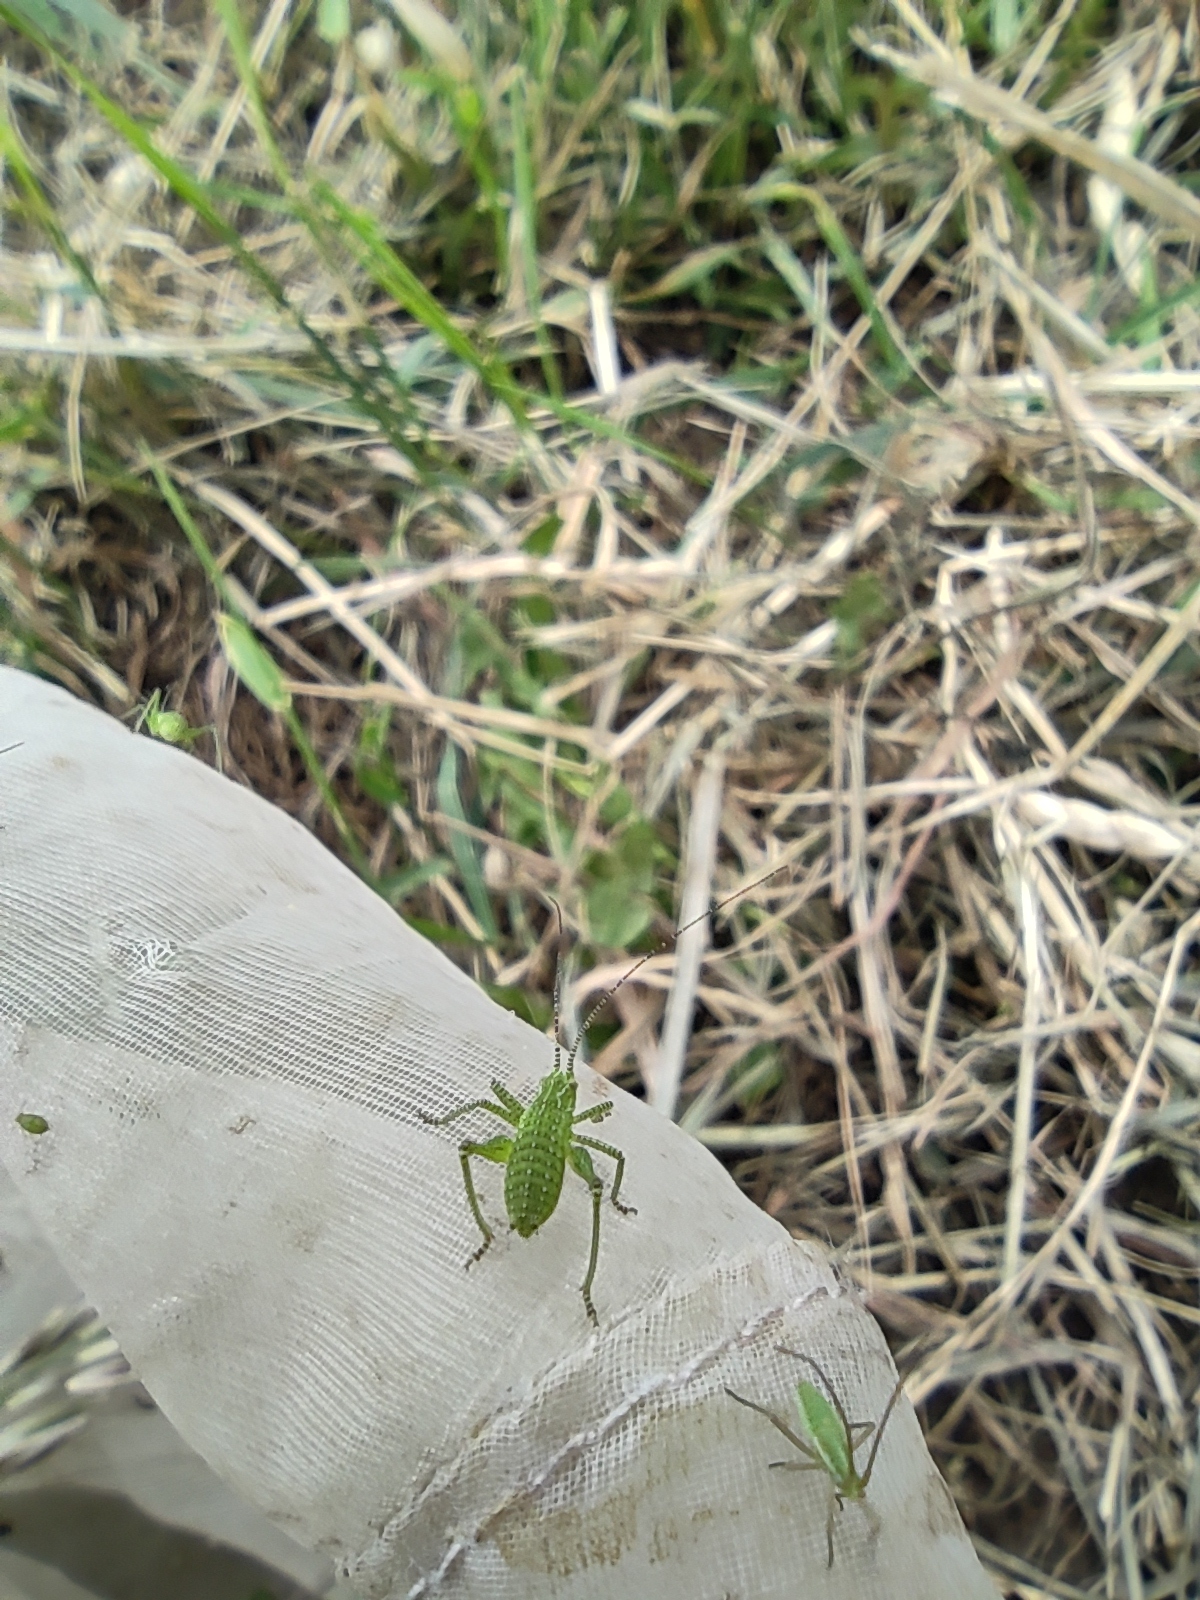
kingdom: Animalia
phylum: Arthropoda
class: Insecta
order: Orthoptera
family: Tettigoniidae
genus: Leptophyes
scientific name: Leptophyes albovittata
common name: Striped bush-cricket
